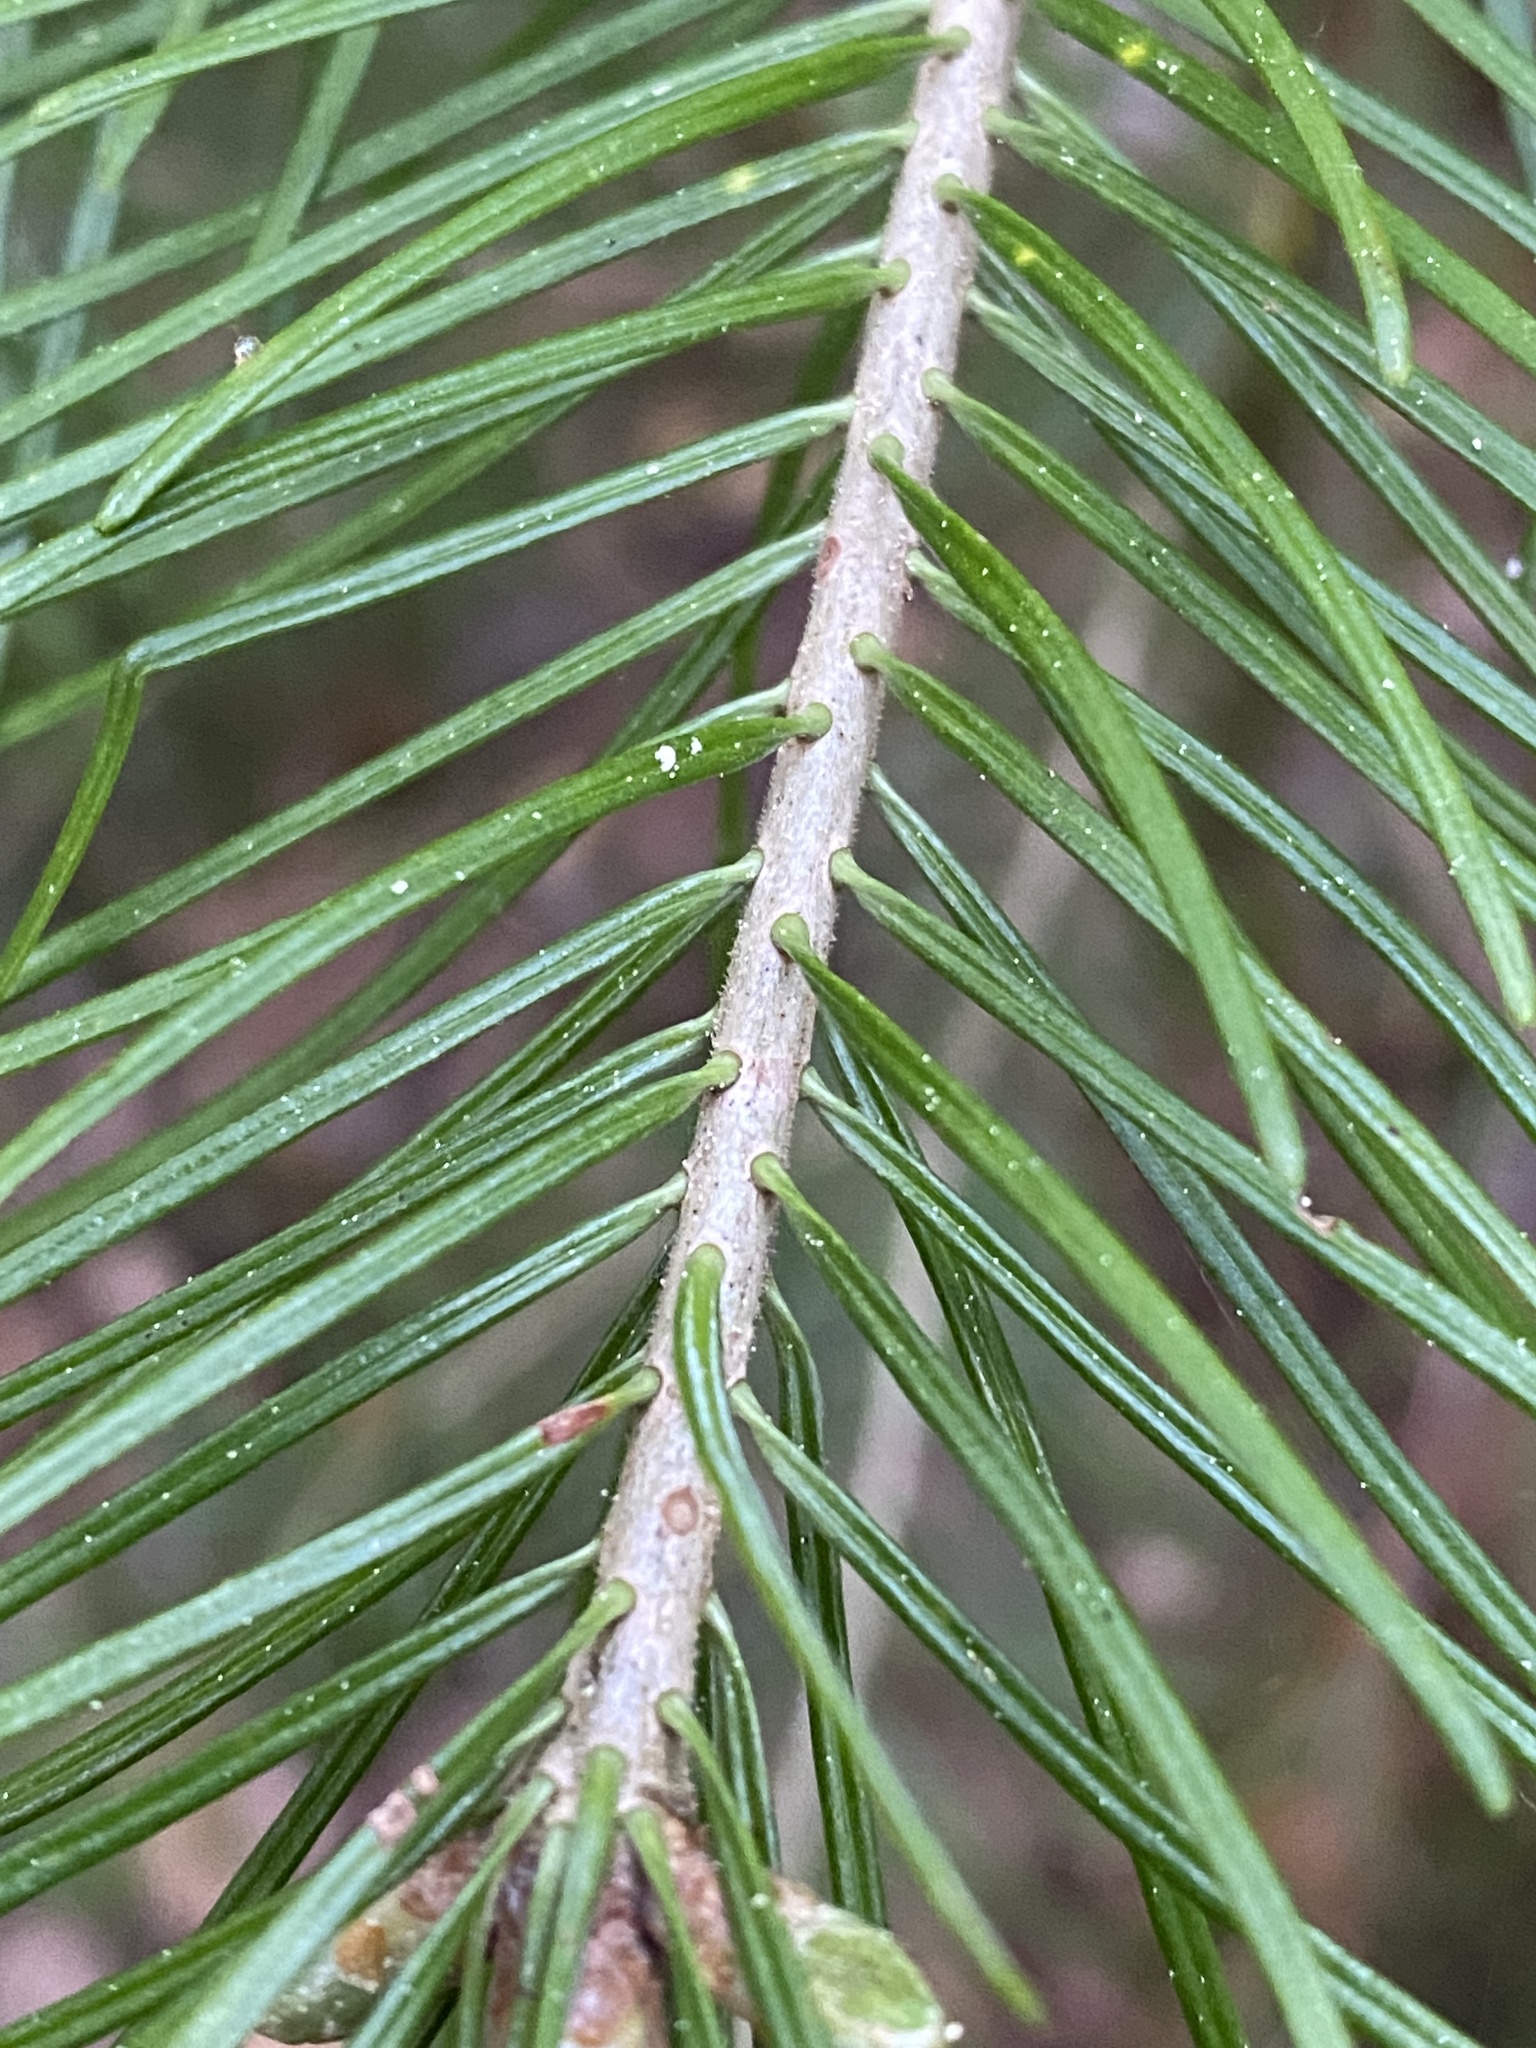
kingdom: Plantae
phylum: Tracheophyta
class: Pinopsida
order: Pinales
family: Pinaceae
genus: Abies
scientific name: Abies sibirica
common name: Siberian fir
